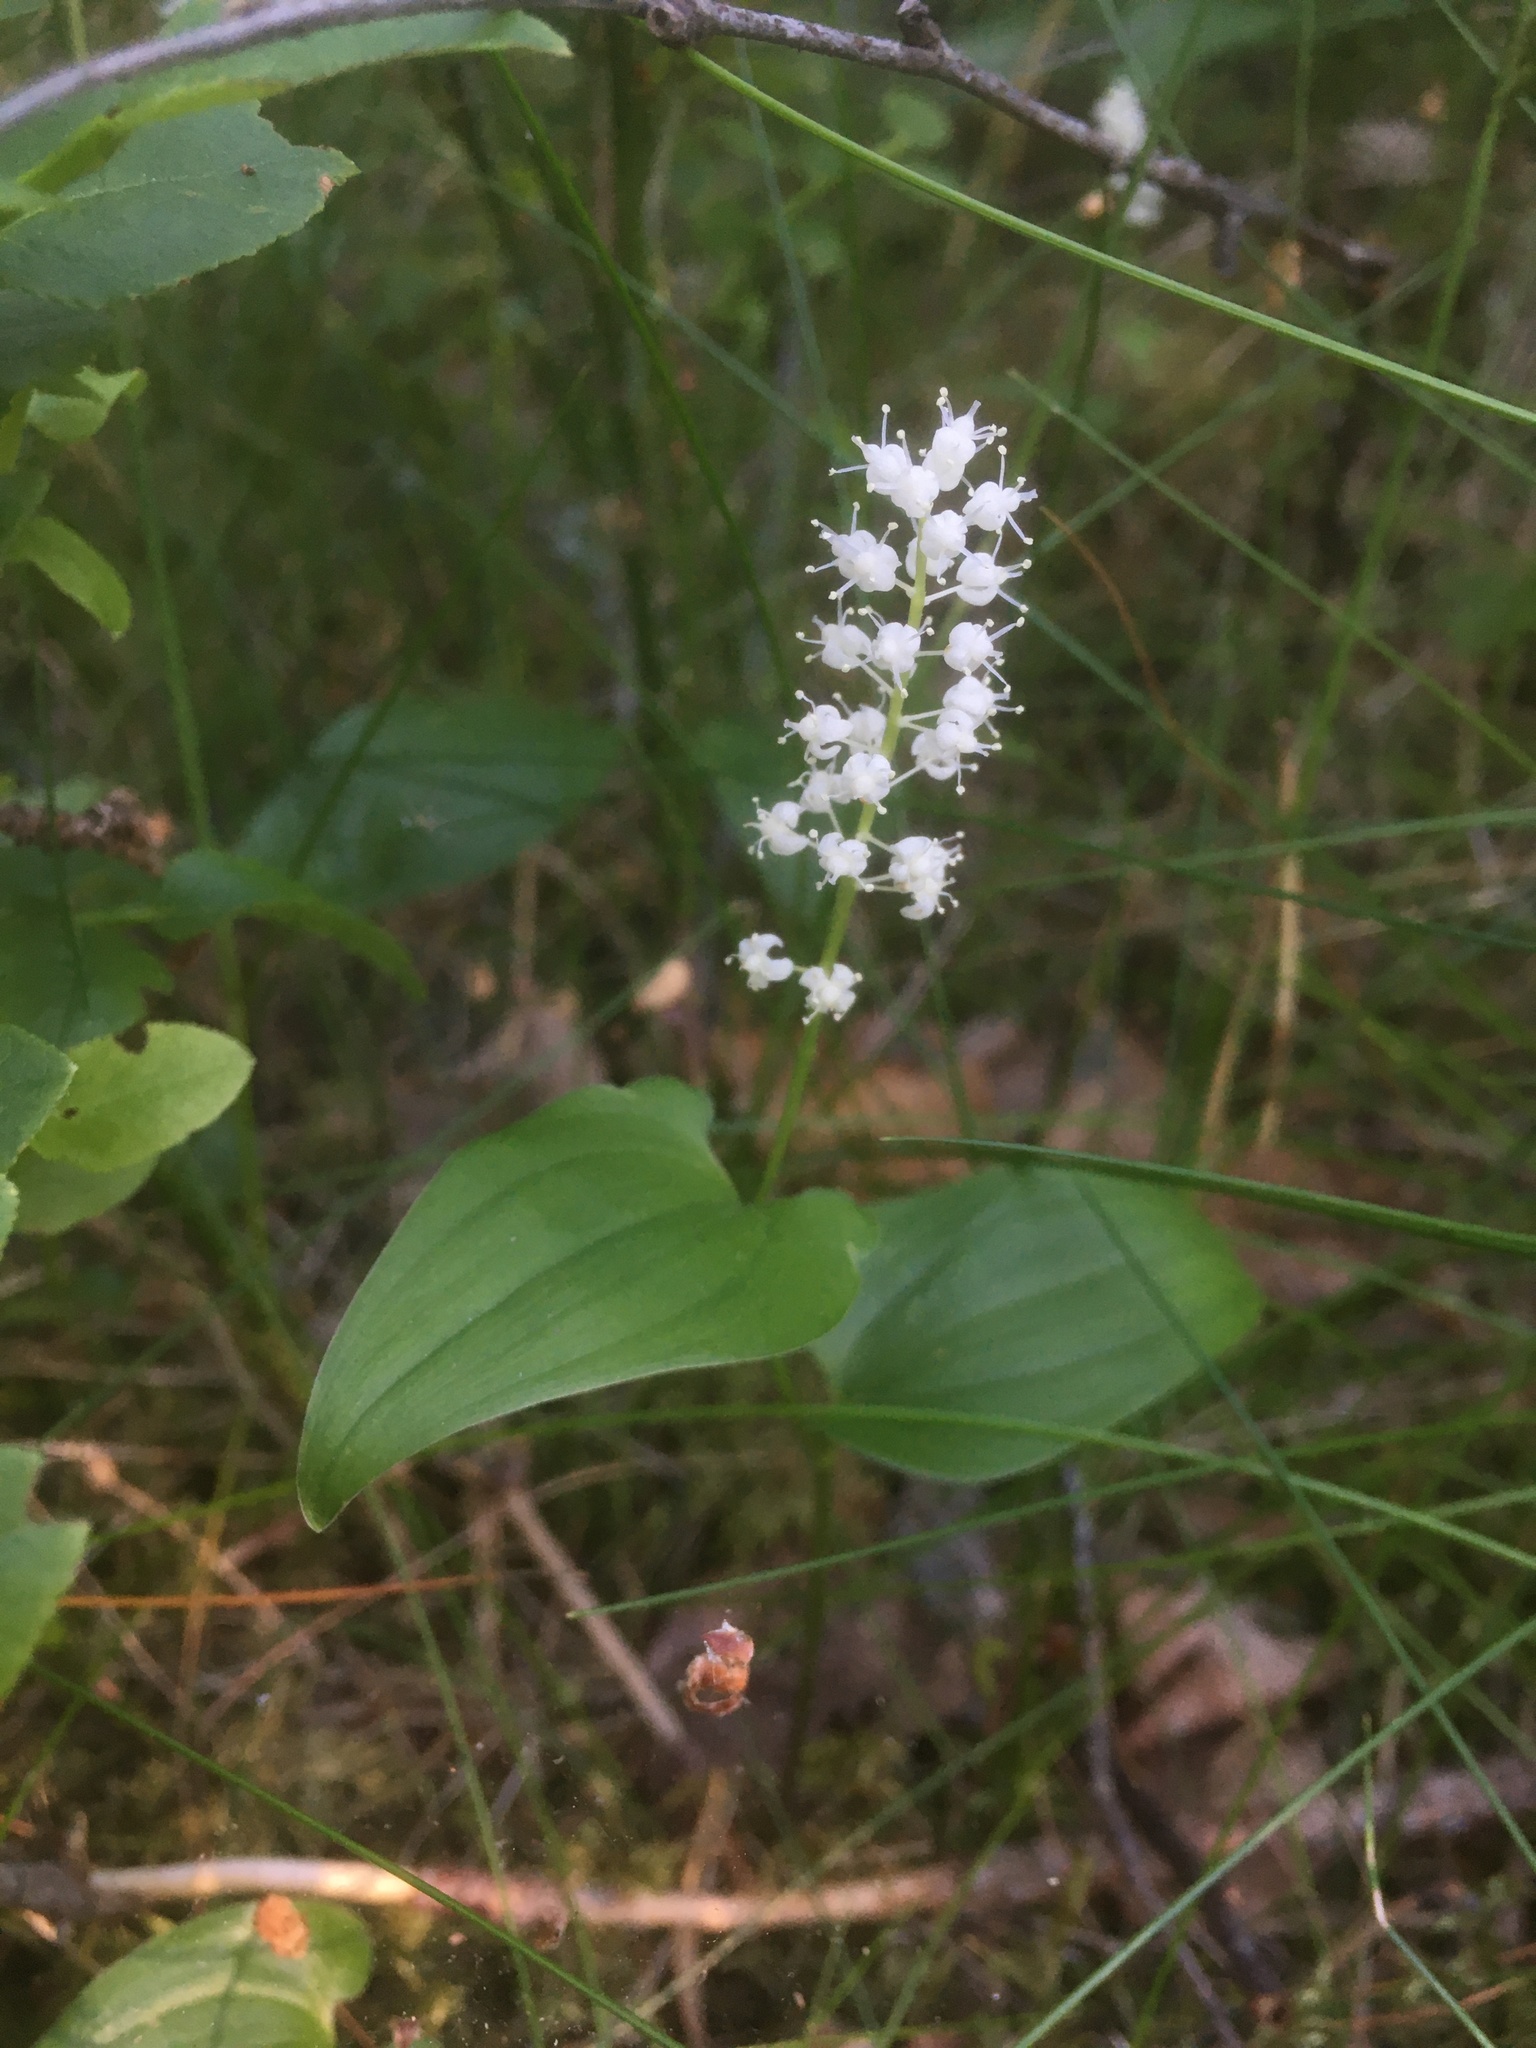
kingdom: Plantae
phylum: Tracheophyta
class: Liliopsida
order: Asparagales
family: Asparagaceae
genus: Maianthemum
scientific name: Maianthemum bifolium
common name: May lily
